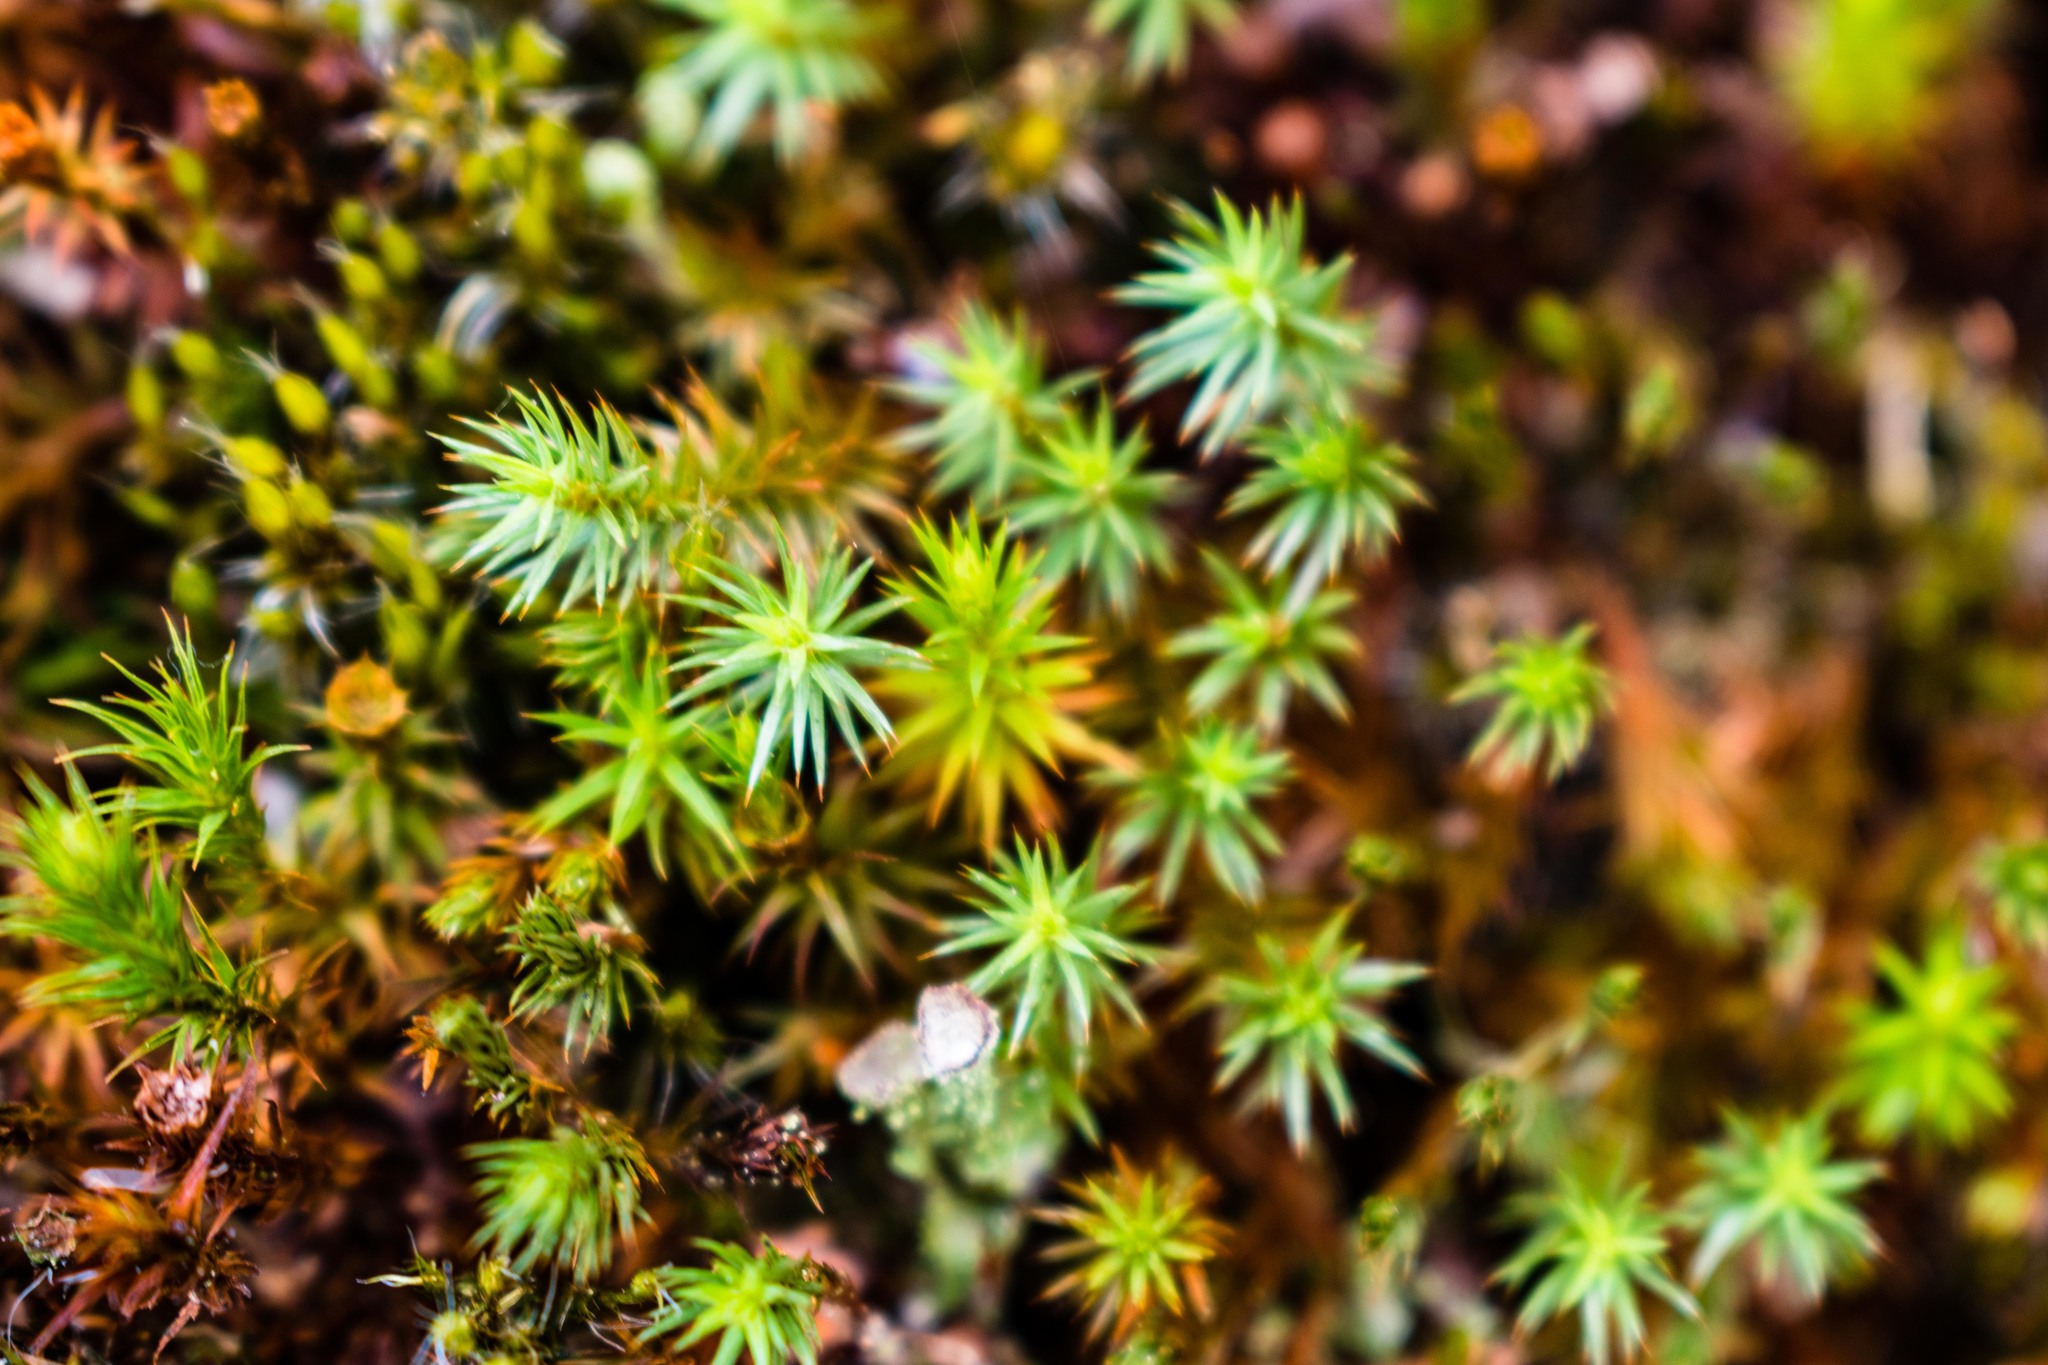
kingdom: Plantae
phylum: Bryophyta
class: Polytrichopsida
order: Polytrichales
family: Polytrichaceae
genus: Polytrichum
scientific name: Polytrichum juniperinum
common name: Juniper haircap moss
